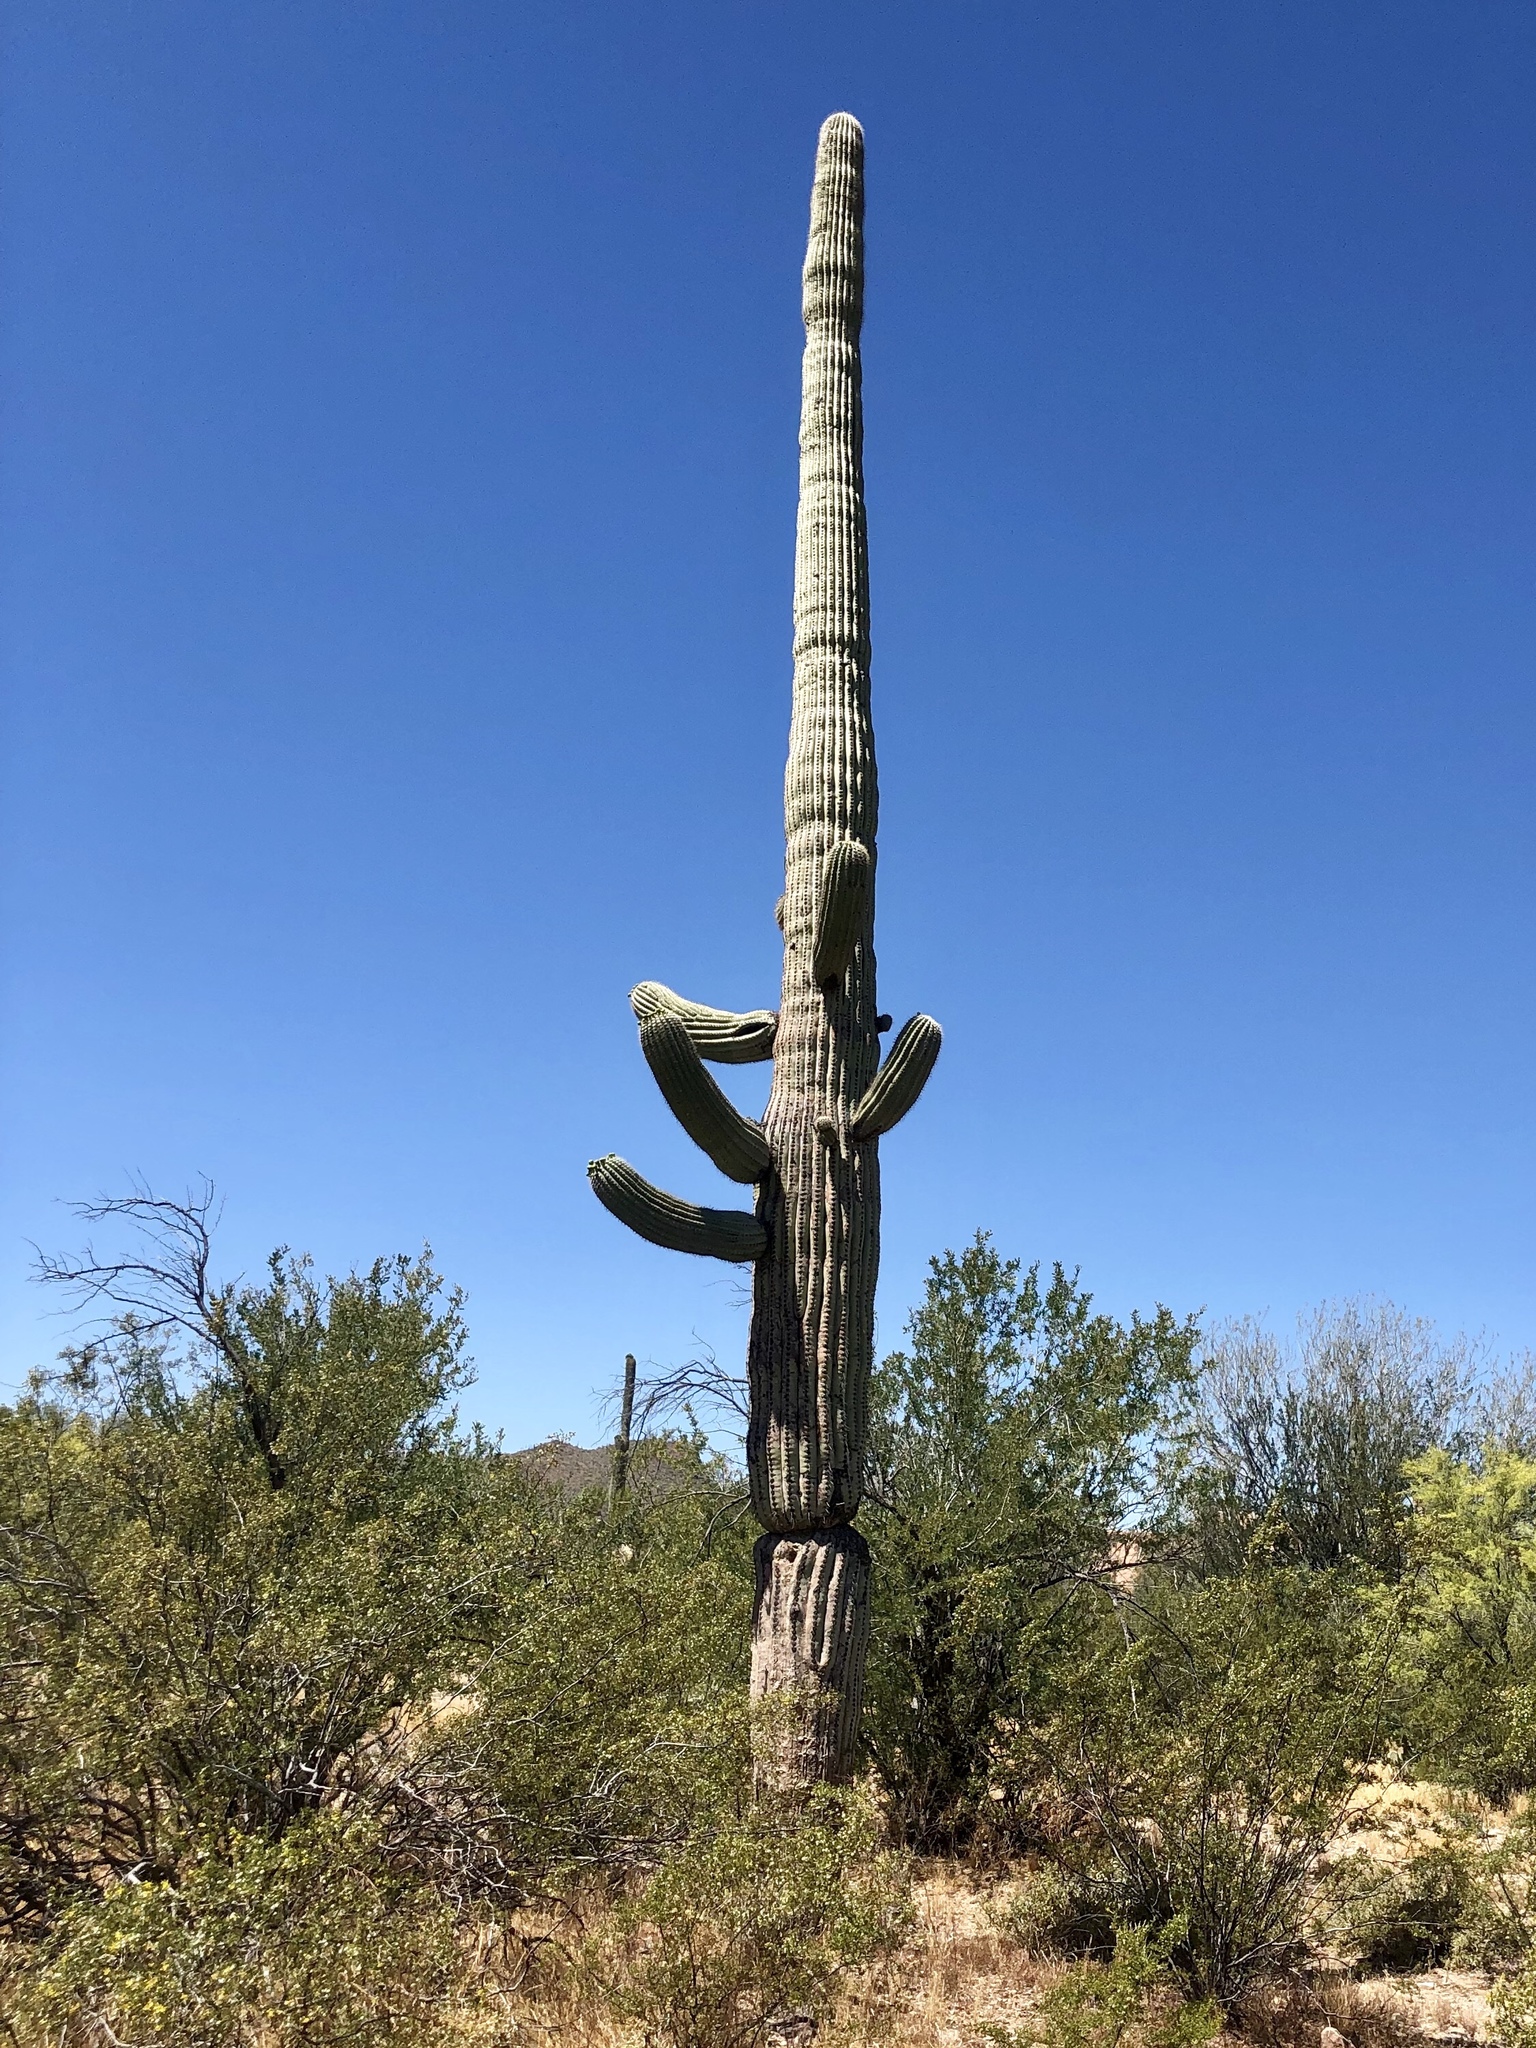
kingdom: Plantae
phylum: Tracheophyta
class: Magnoliopsida
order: Caryophyllales
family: Cactaceae
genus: Carnegiea
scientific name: Carnegiea gigantea
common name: Saguaro
